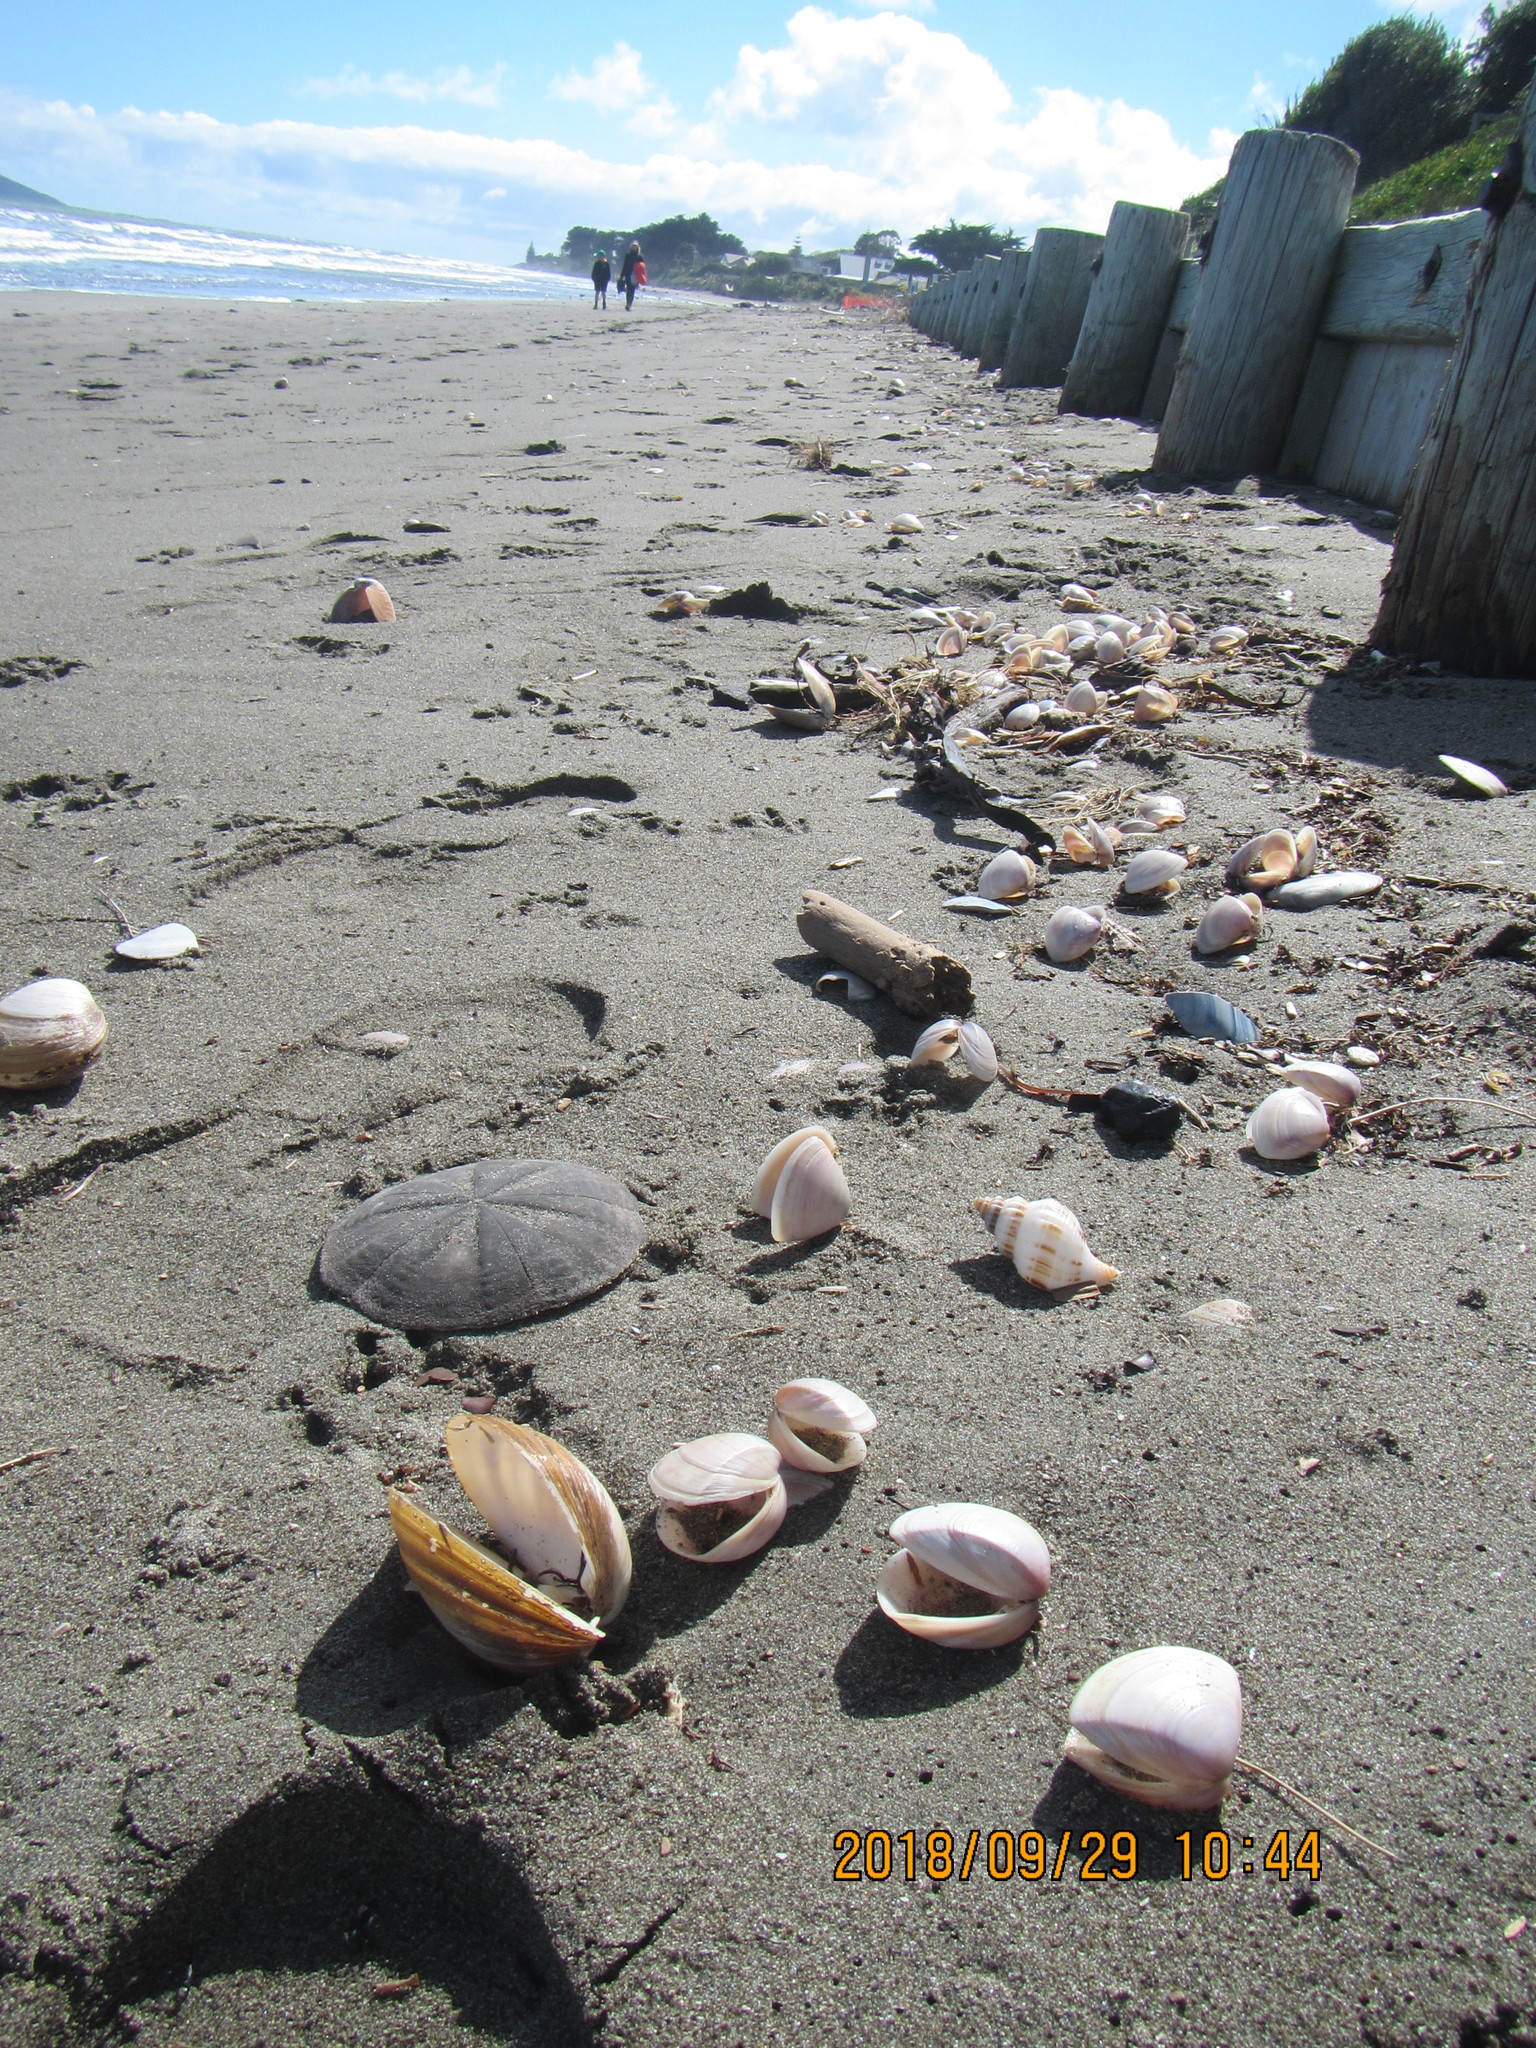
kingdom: Animalia
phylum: Echinodermata
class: Echinoidea
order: Clypeasteroida
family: Clypeasteridae
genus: Fellaster
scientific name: Fellaster zelandiae
